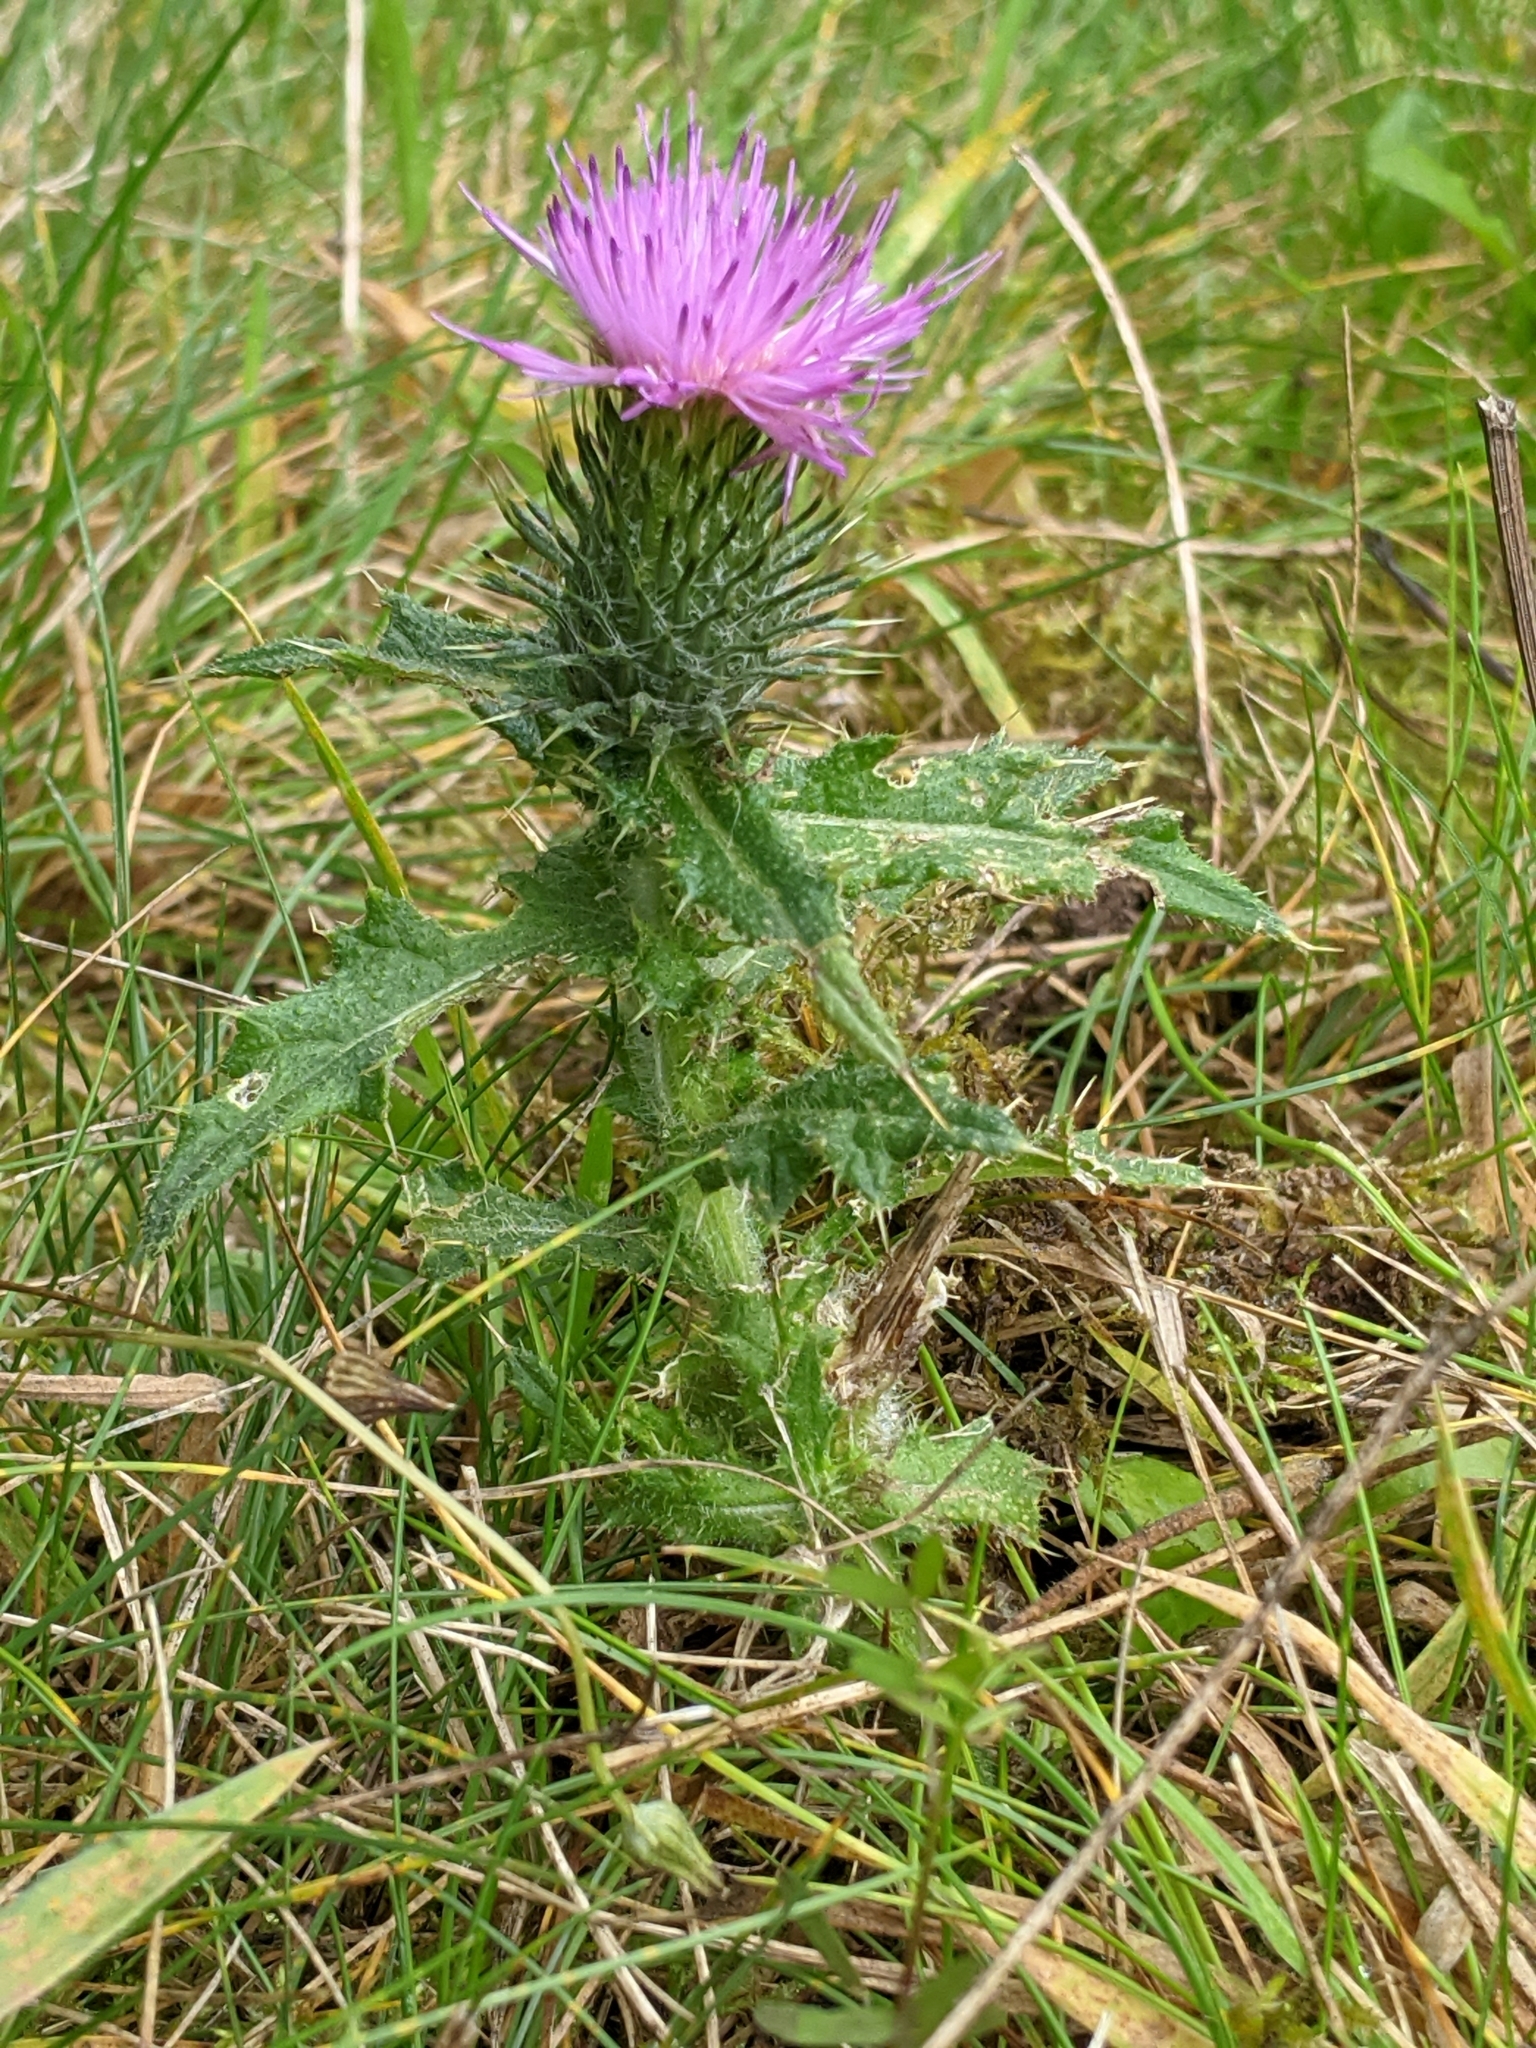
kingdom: Plantae
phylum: Tracheophyta
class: Magnoliopsida
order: Asterales
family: Asteraceae
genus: Cirsium
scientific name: Cirsium vulgare
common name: Bull thistle
